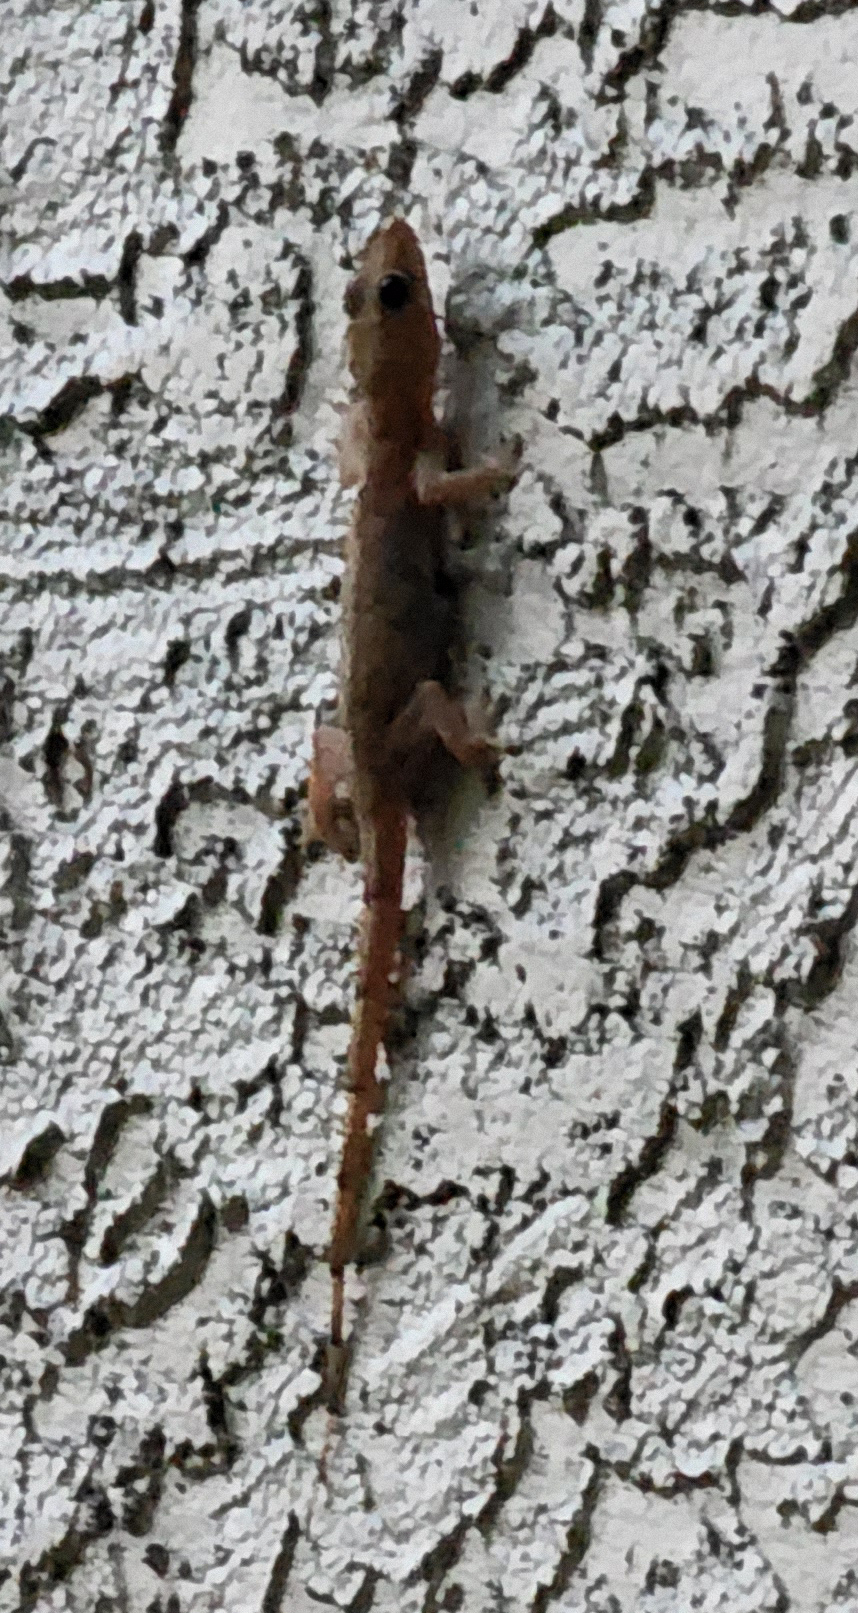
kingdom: Animalia
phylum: Chordata
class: Squamata
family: Gekkonidae
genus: Hemidactylus
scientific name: Hemidactylus mabouia
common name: House gecko
